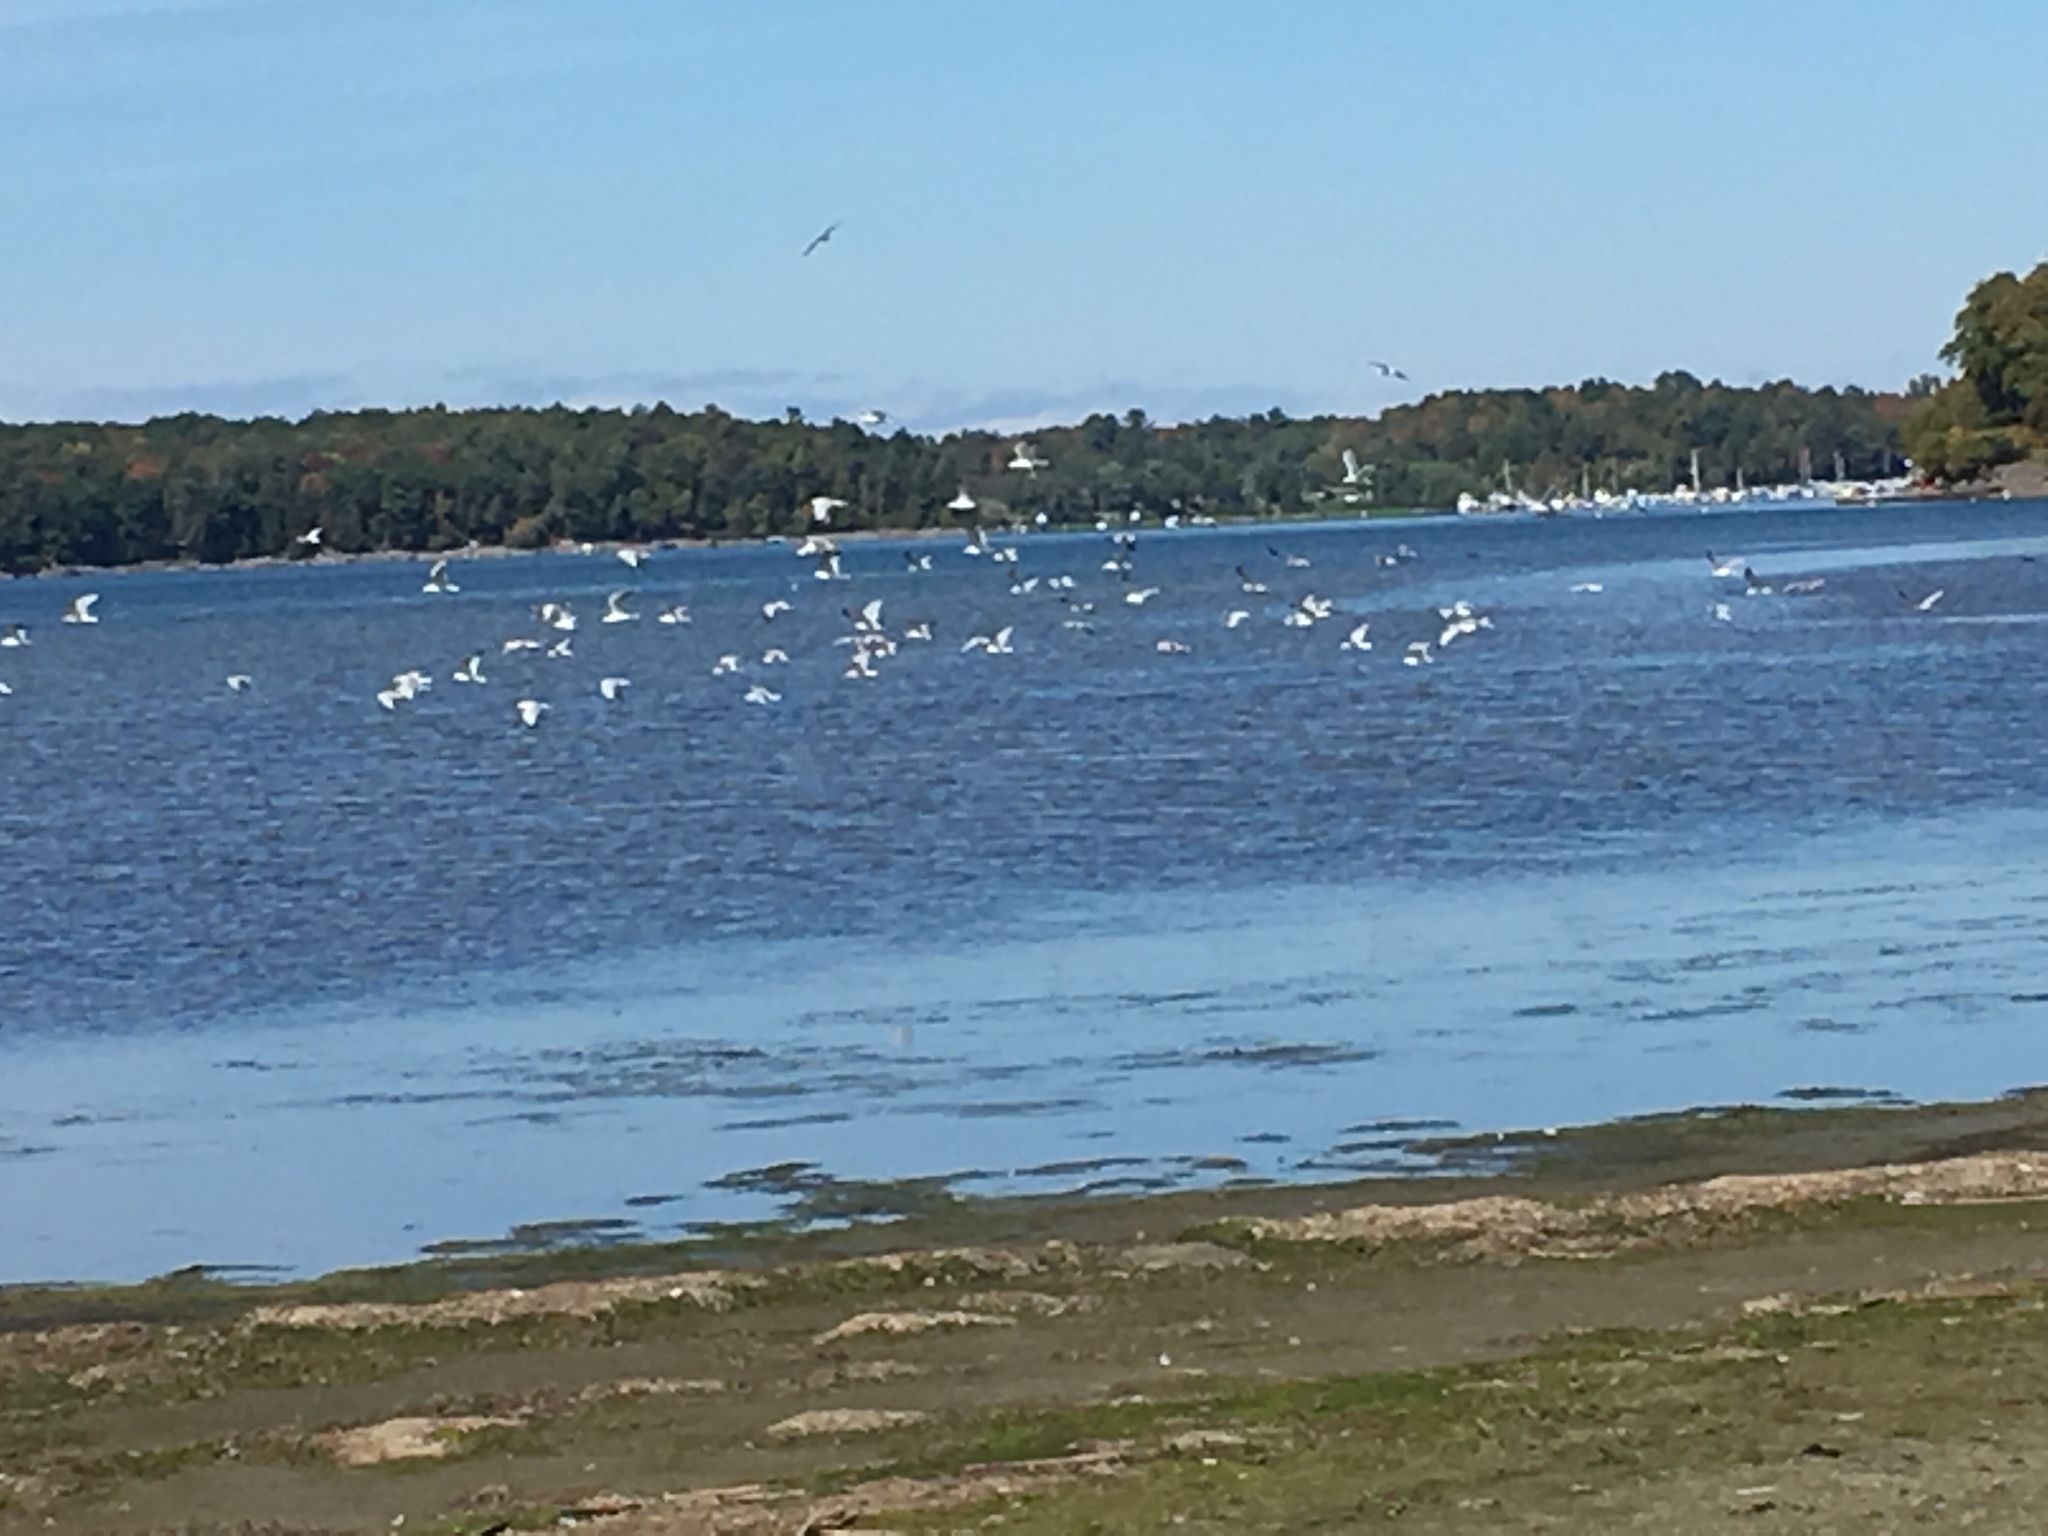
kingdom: Animalia
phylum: Chordata
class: Aves
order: Charadriiformes
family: Laridae
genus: Larus
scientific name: Larus
